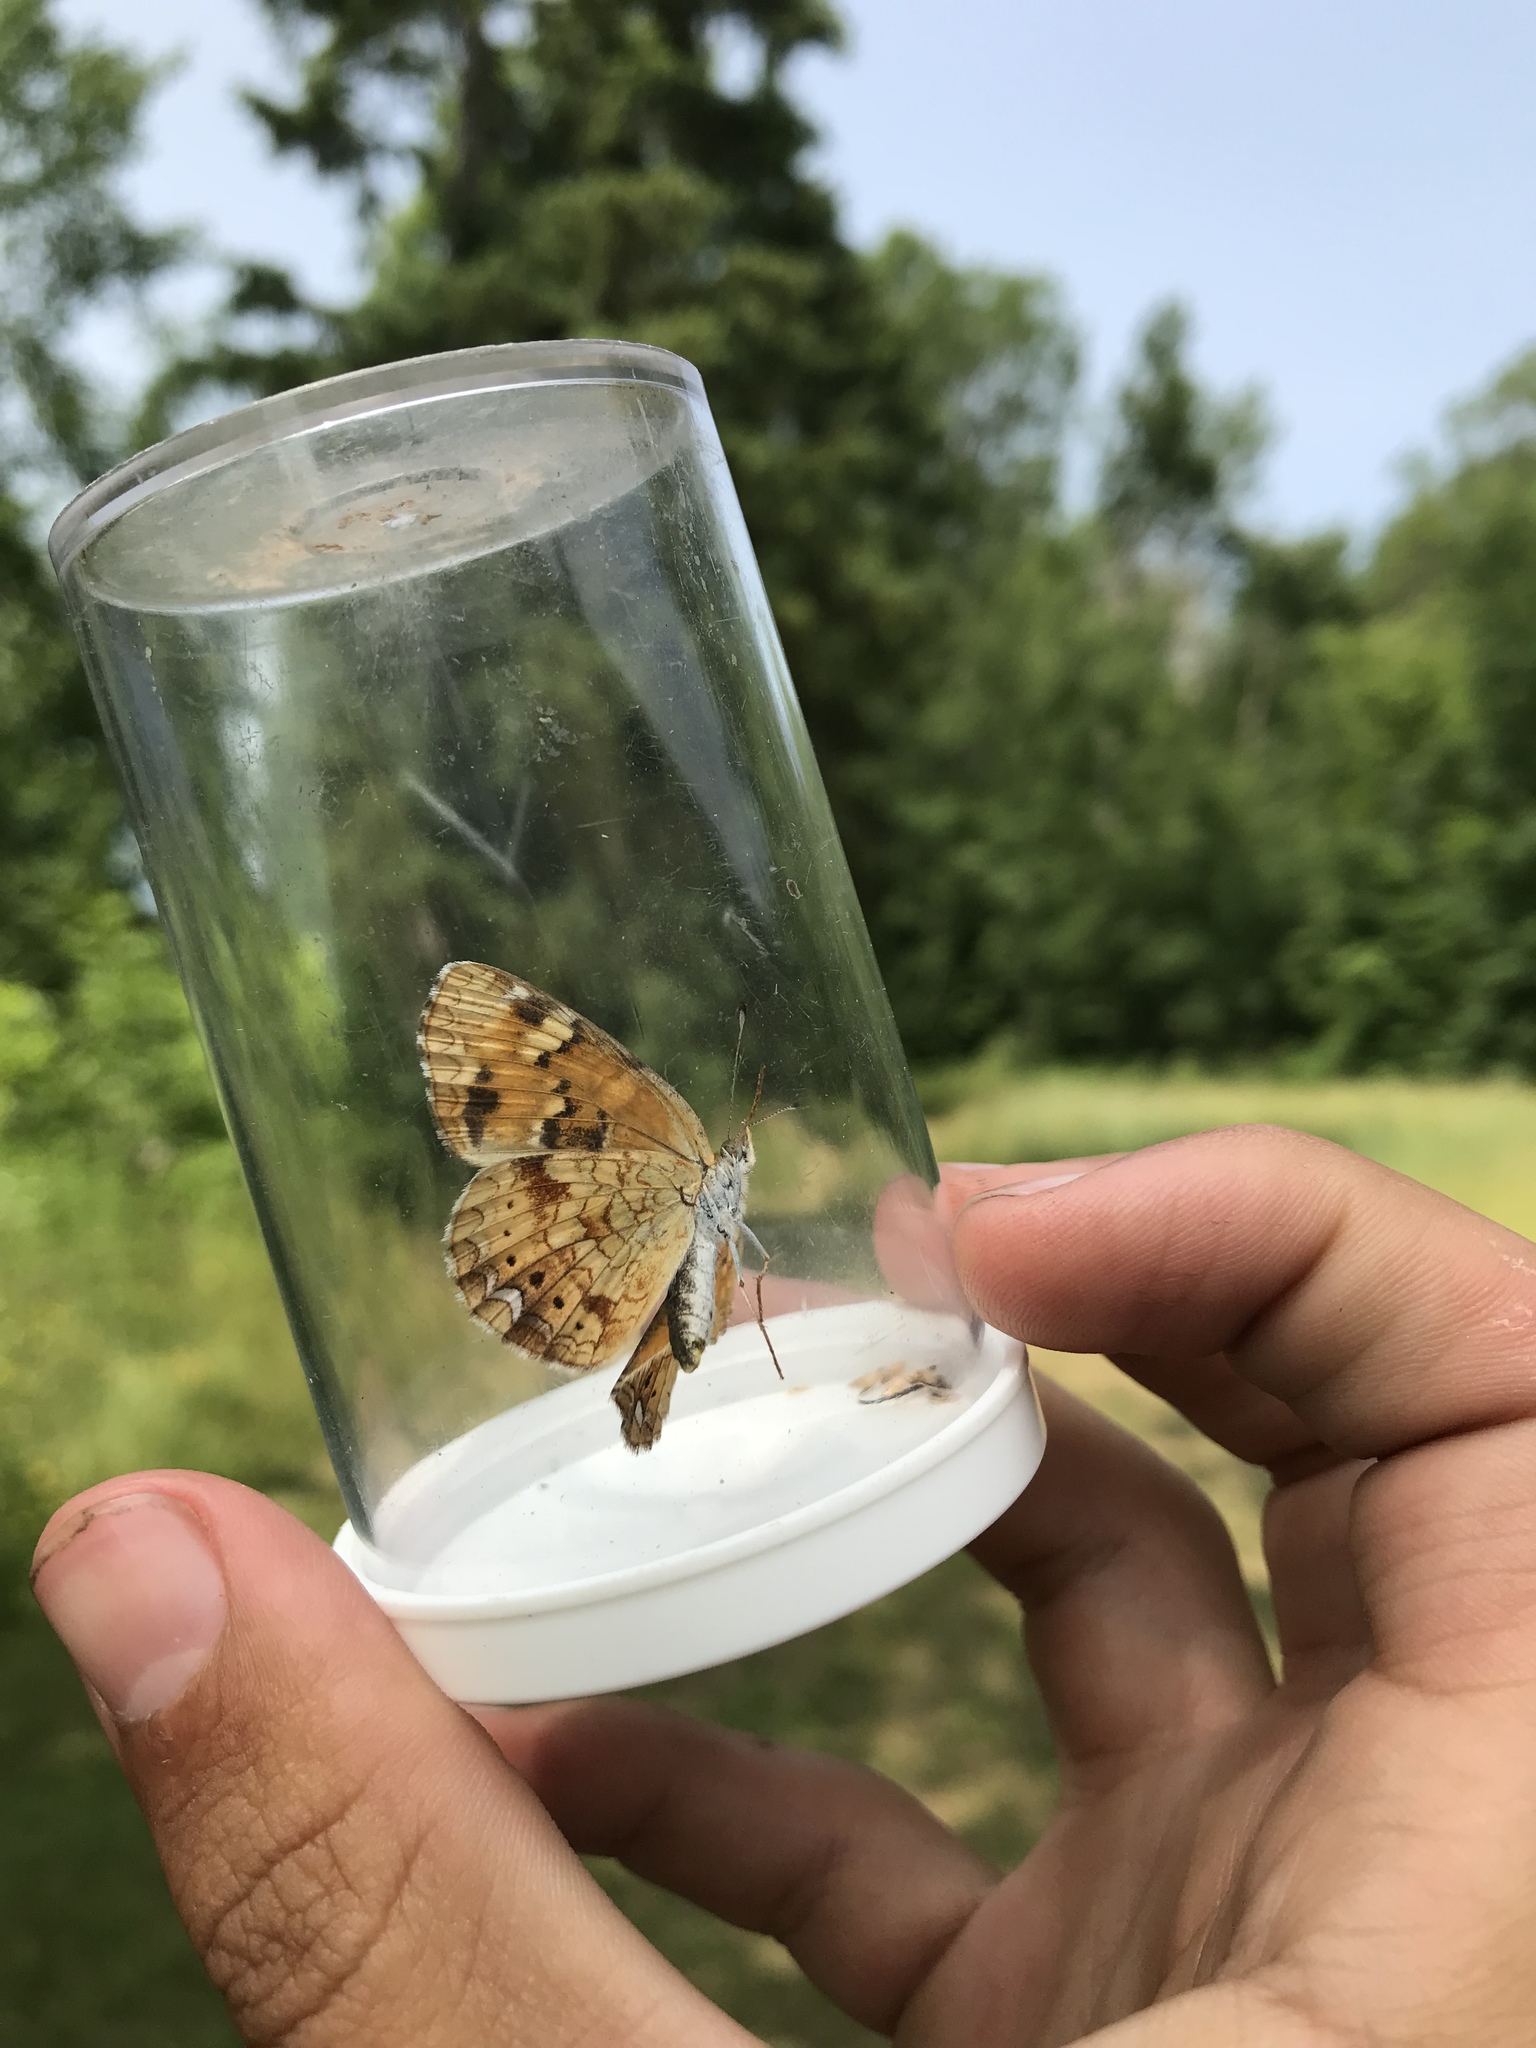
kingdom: Animalia
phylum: Arthropoda
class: Insecta
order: Lepidoptera
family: Nymphalidae
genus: Phyciodes
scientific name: Phyciodes tharos
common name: Pearl crescent
